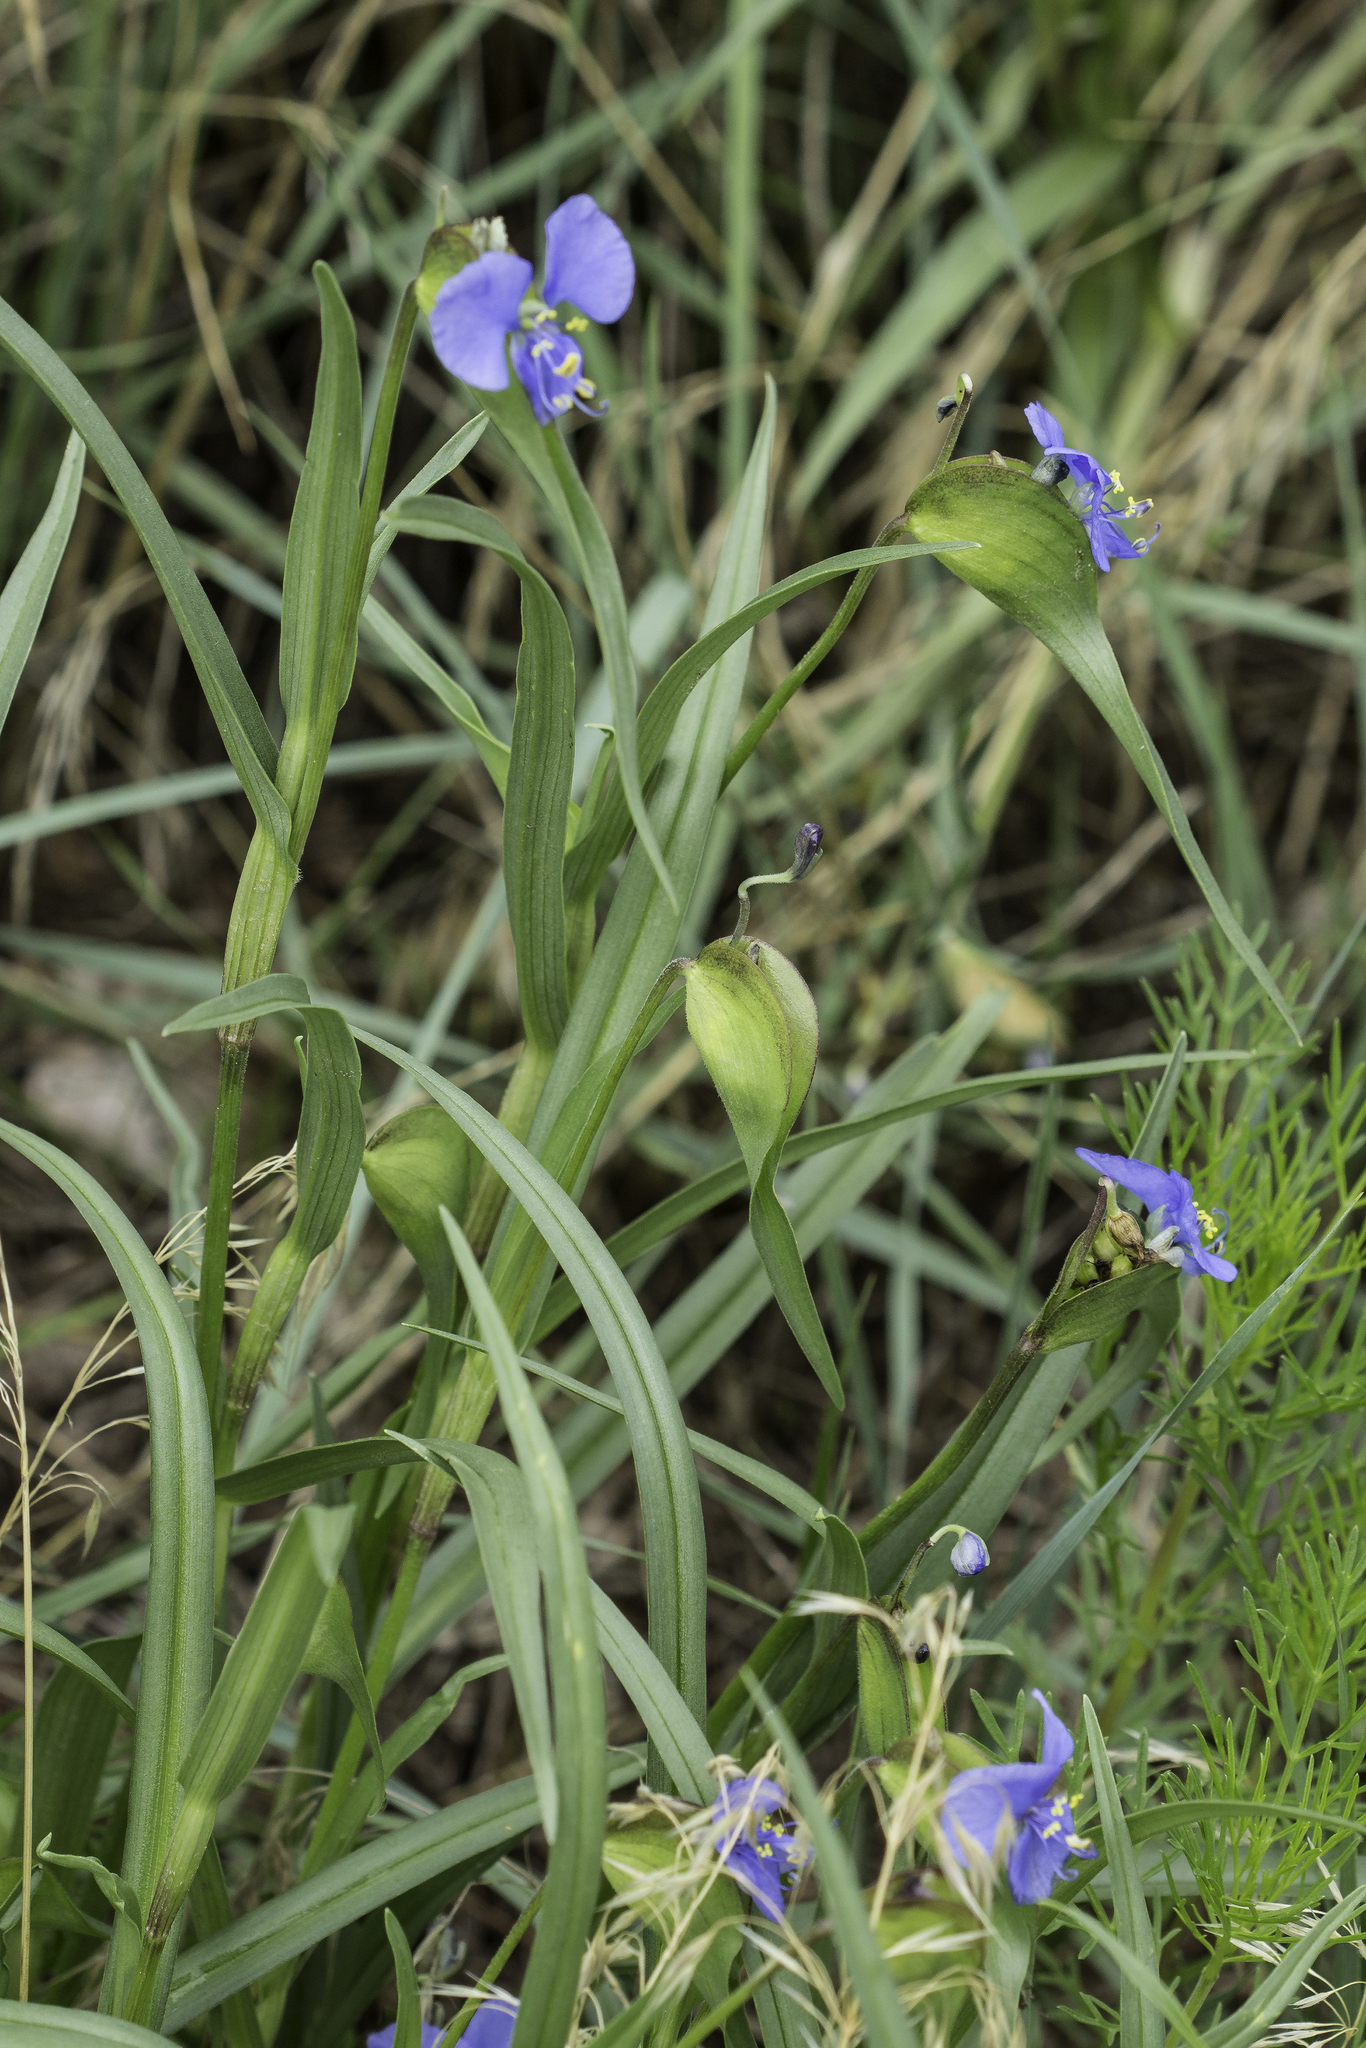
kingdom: Plantae
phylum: Tracheophyta
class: Liliopsida
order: Commelinales
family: Commelinaceae
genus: Commelina
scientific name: Commelina dianthifolia
